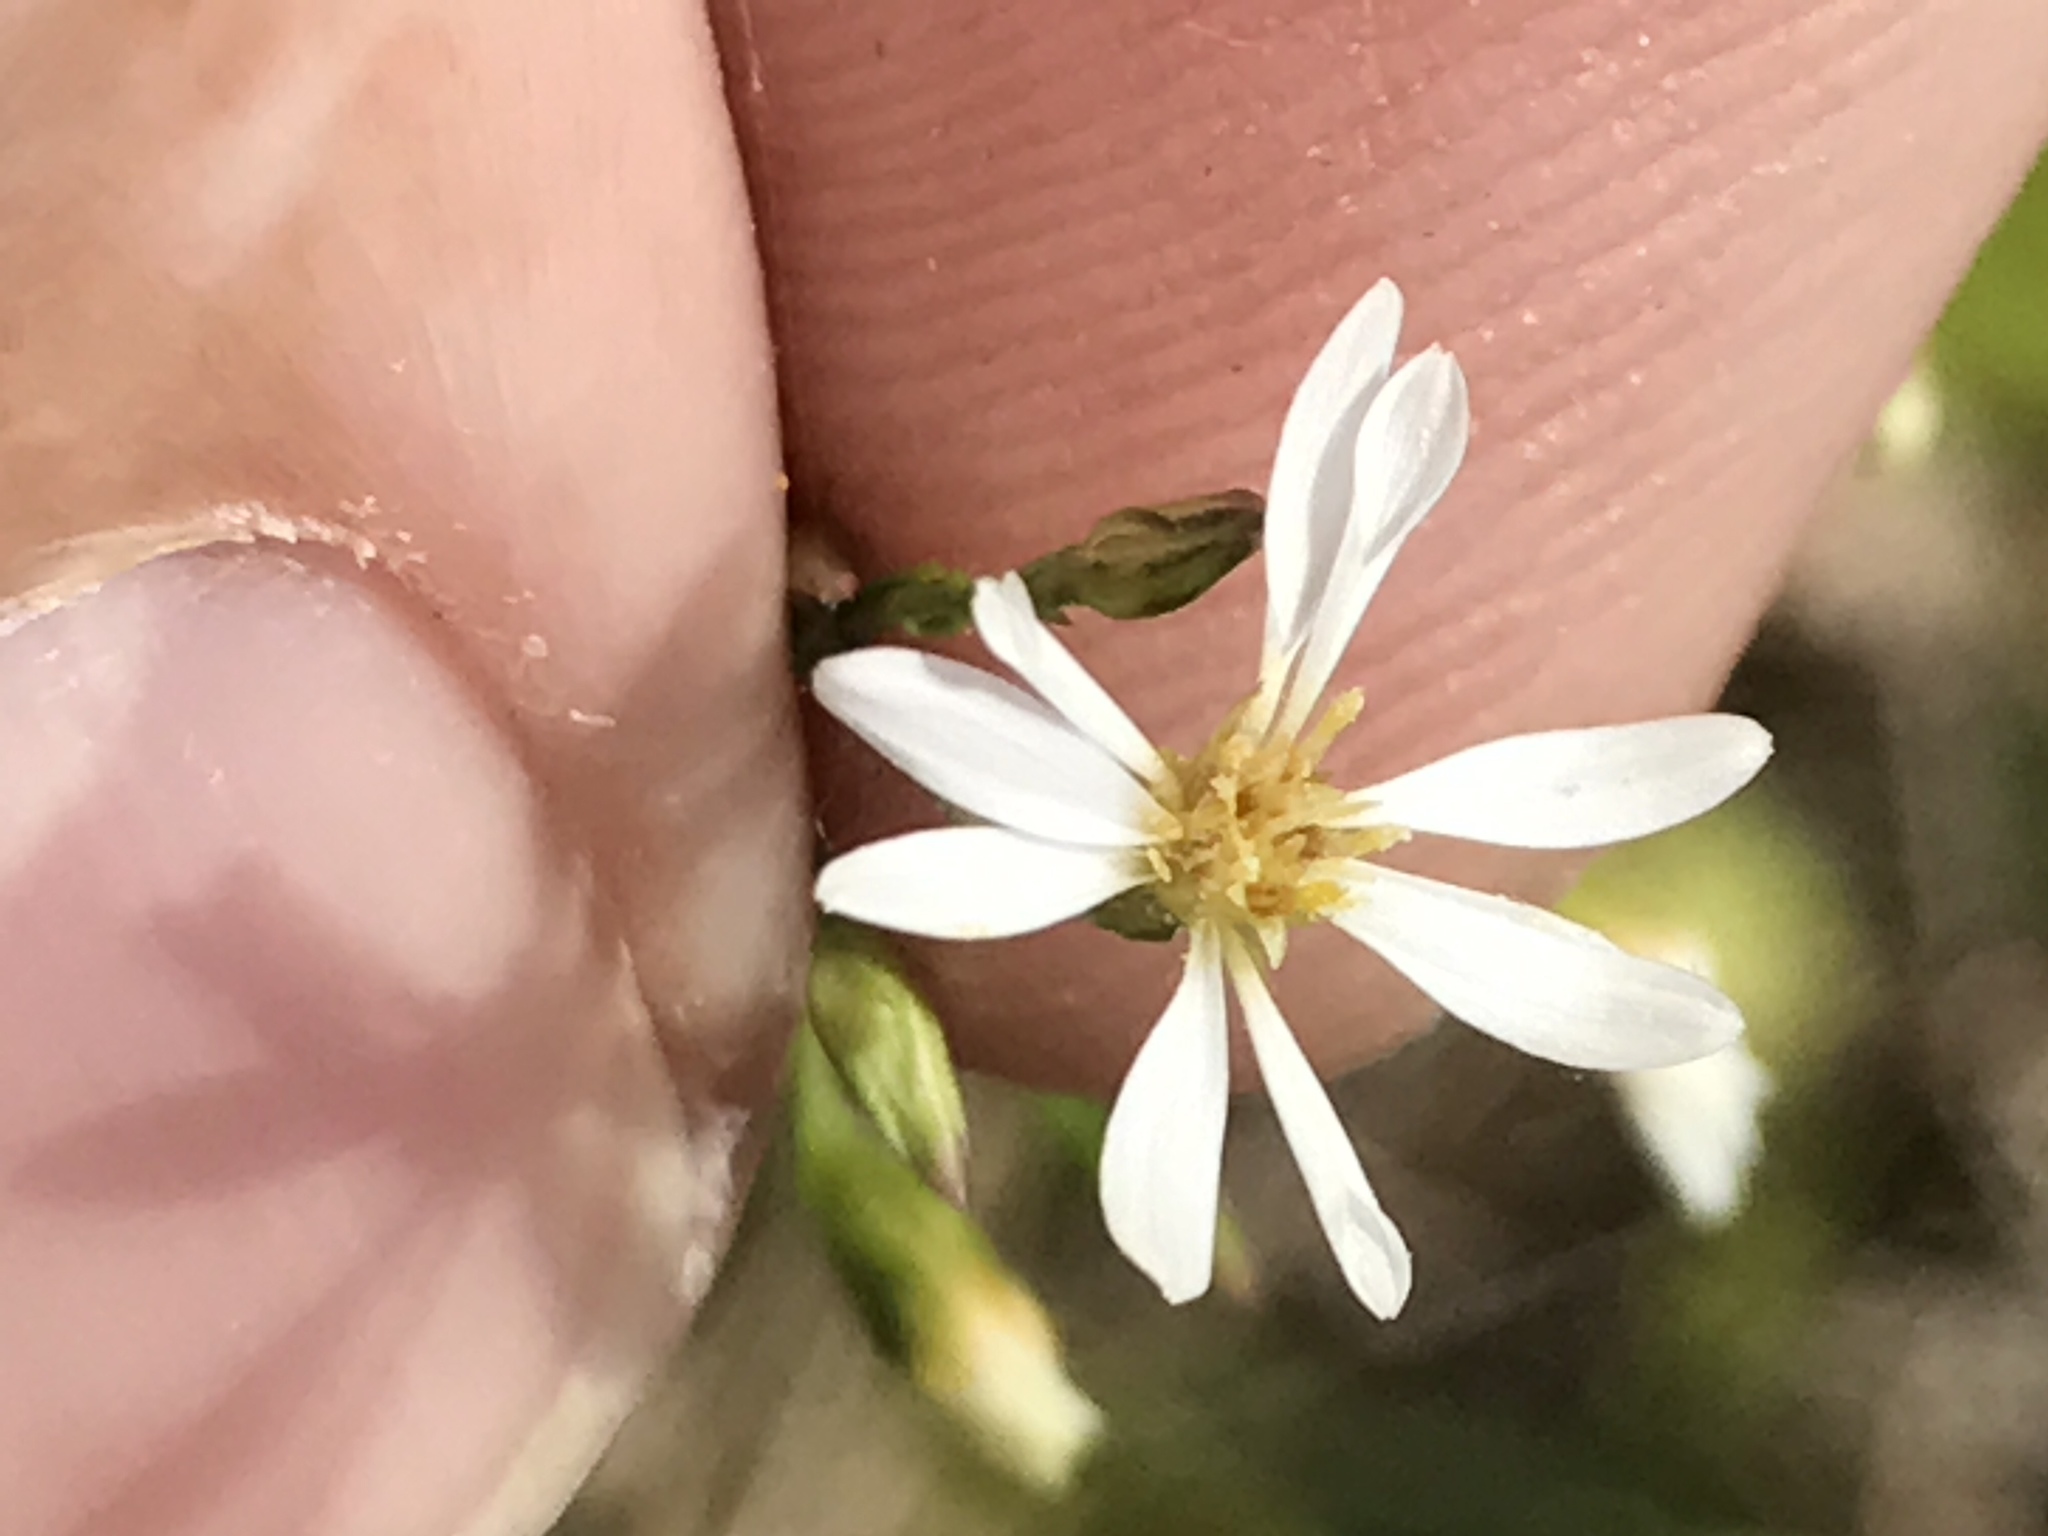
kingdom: Plantae
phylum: Tracheophyta
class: Magnoliopsida
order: Asterales
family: Asteraceae
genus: Symphyotrichum
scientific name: Symphyotrichum depauperatum
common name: Serpentine aster
